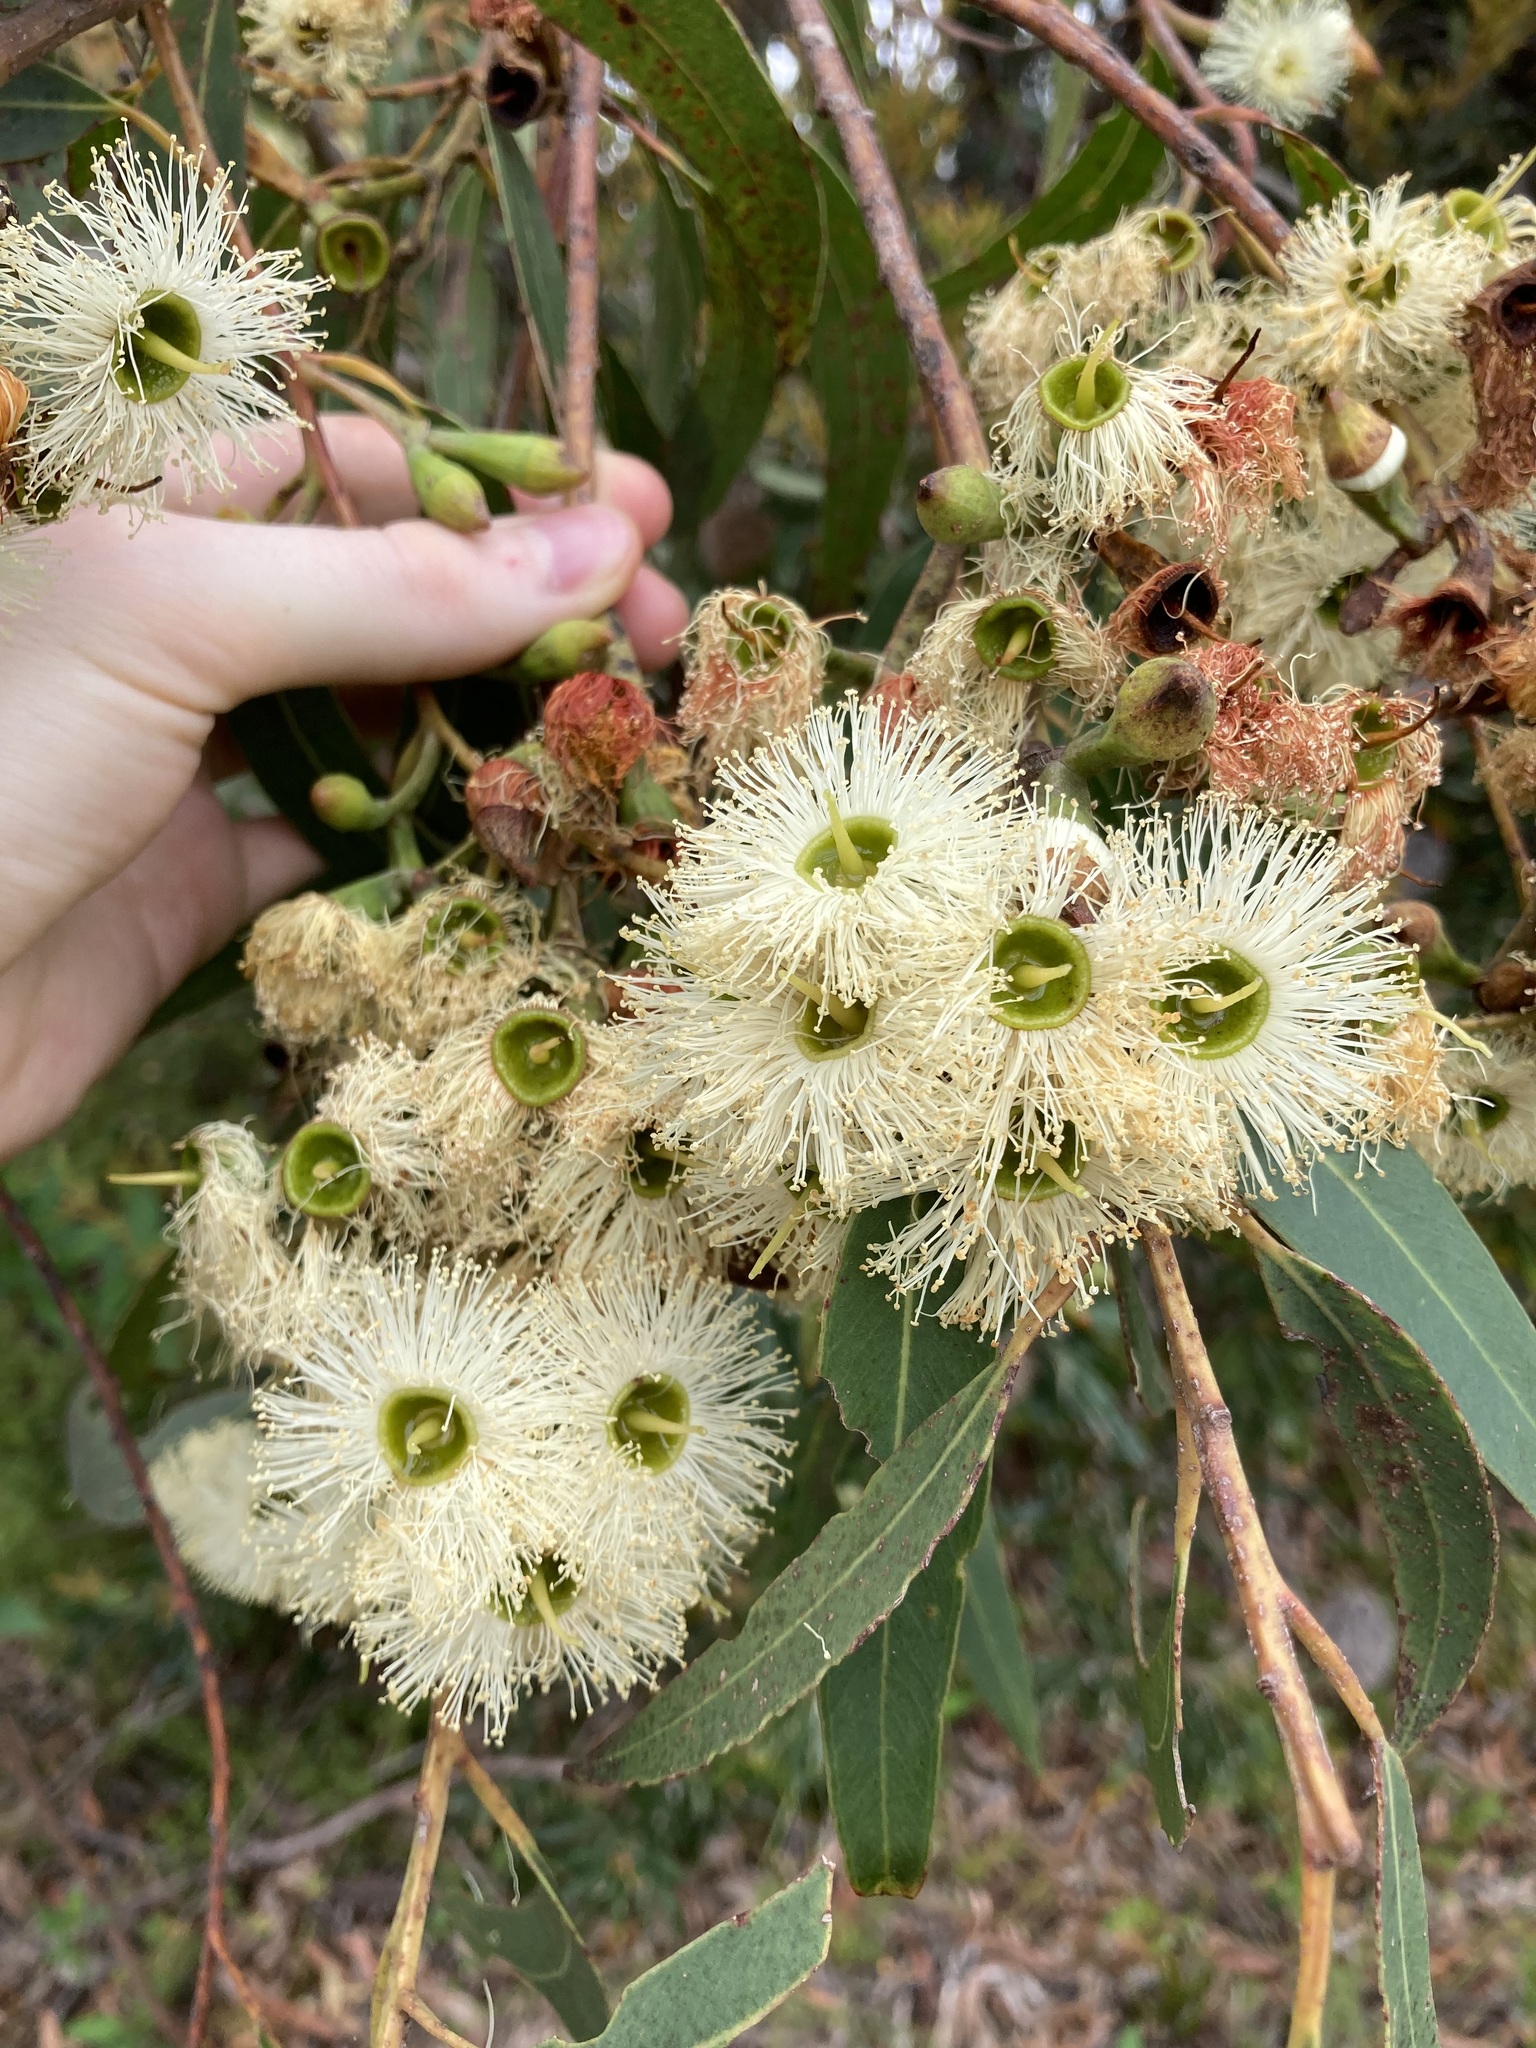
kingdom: Plantae
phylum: Tracheophyta
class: Magnoliopsida
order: Myrtales
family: Myrtaceae
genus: Eucalyptus
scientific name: Eucalyptus planchoniana
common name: Bastard-tallow-wood
